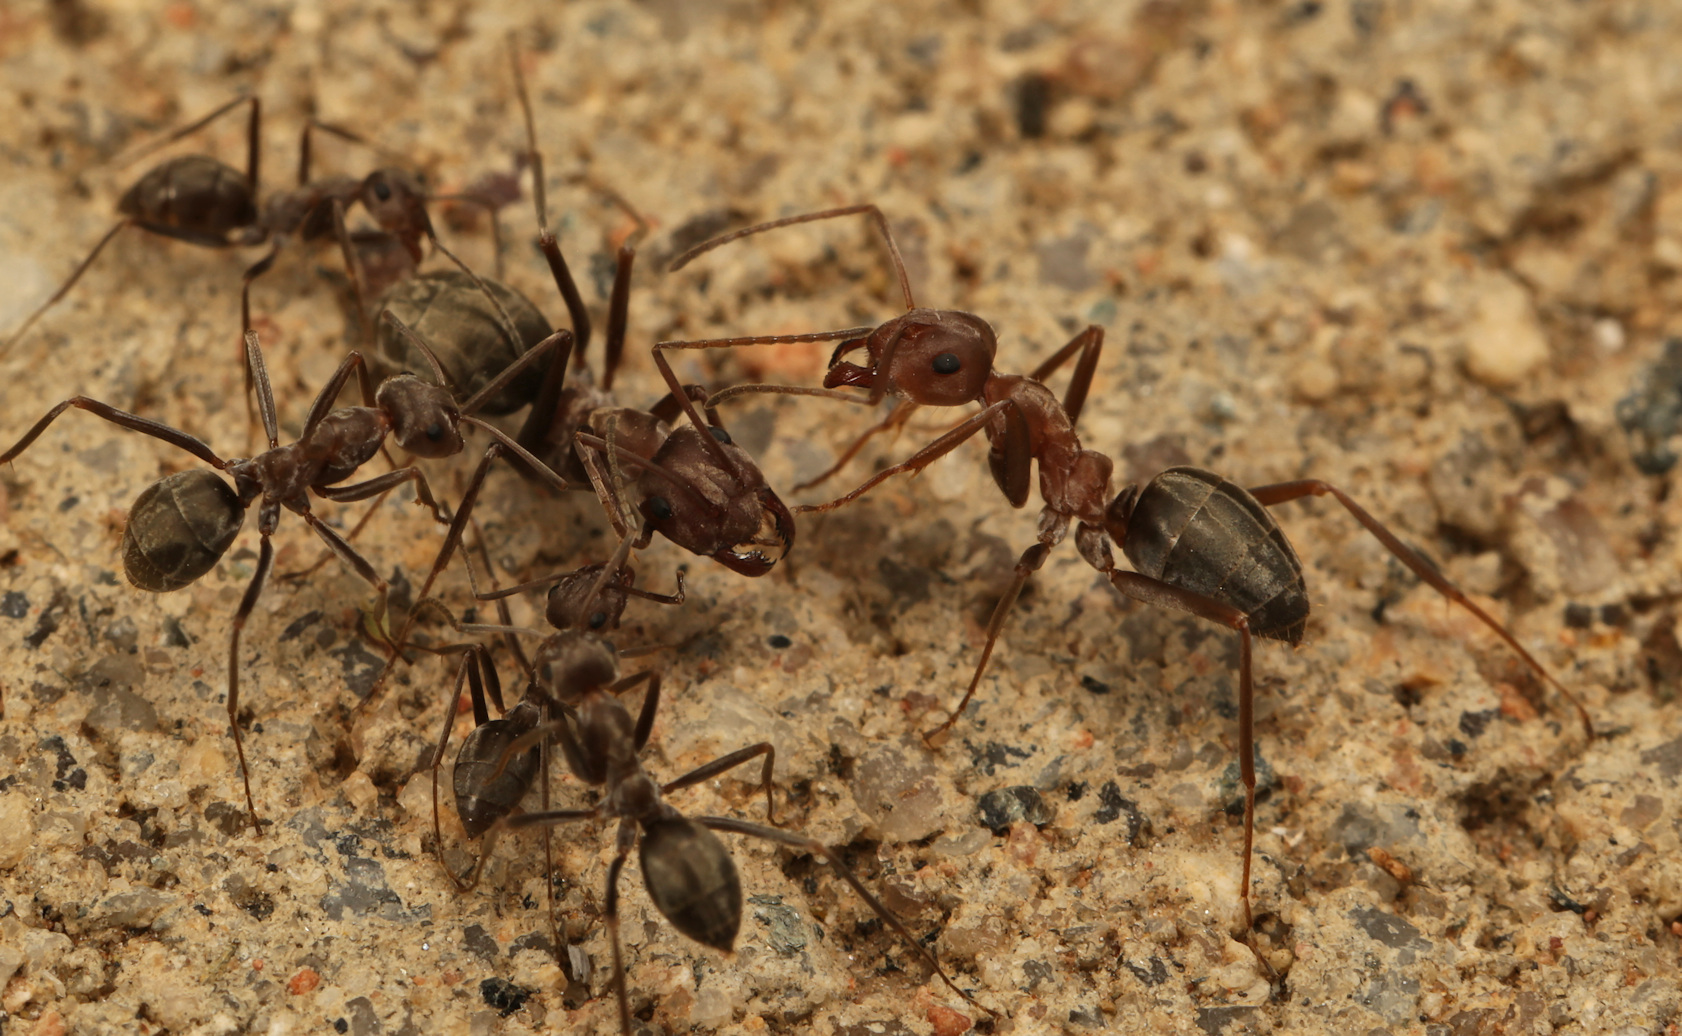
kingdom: Animalia
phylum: Arthropoda
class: Insecta
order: Hymenoptera
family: Formicidae
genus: Anoplolepis
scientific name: Anoplolepis custodiens
